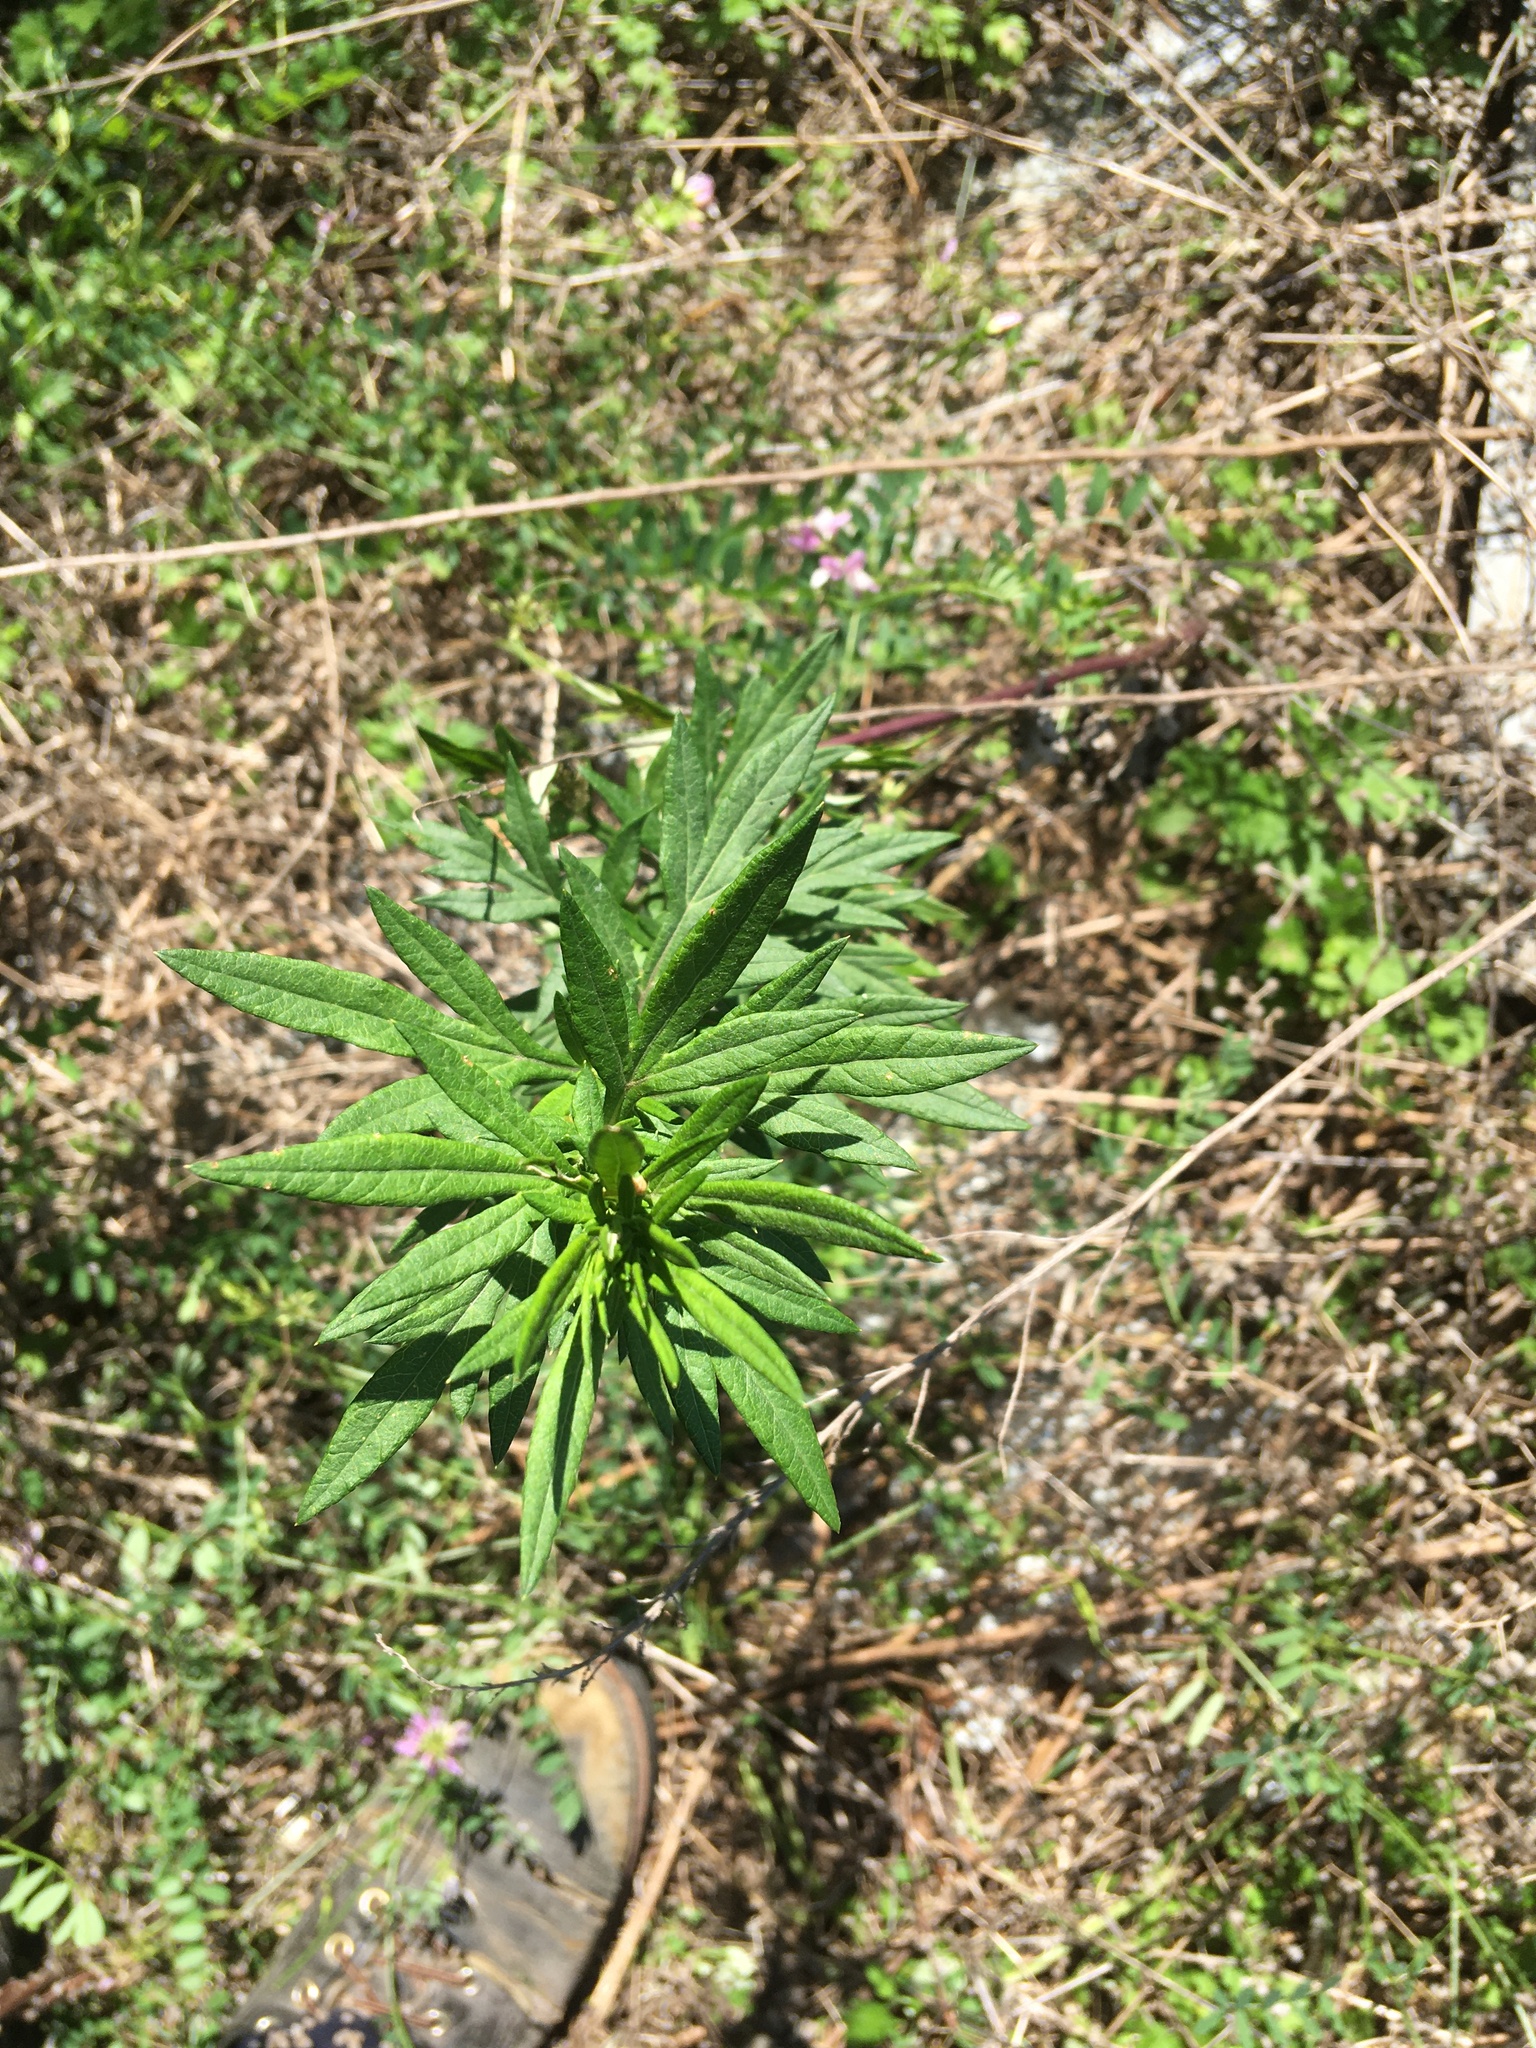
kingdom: Plantae
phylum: Tracheophyta
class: Magnoliopsida
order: Asterales
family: Asteraceae
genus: Artemisia
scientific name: Artemisia vulgaris
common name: Mugwort
